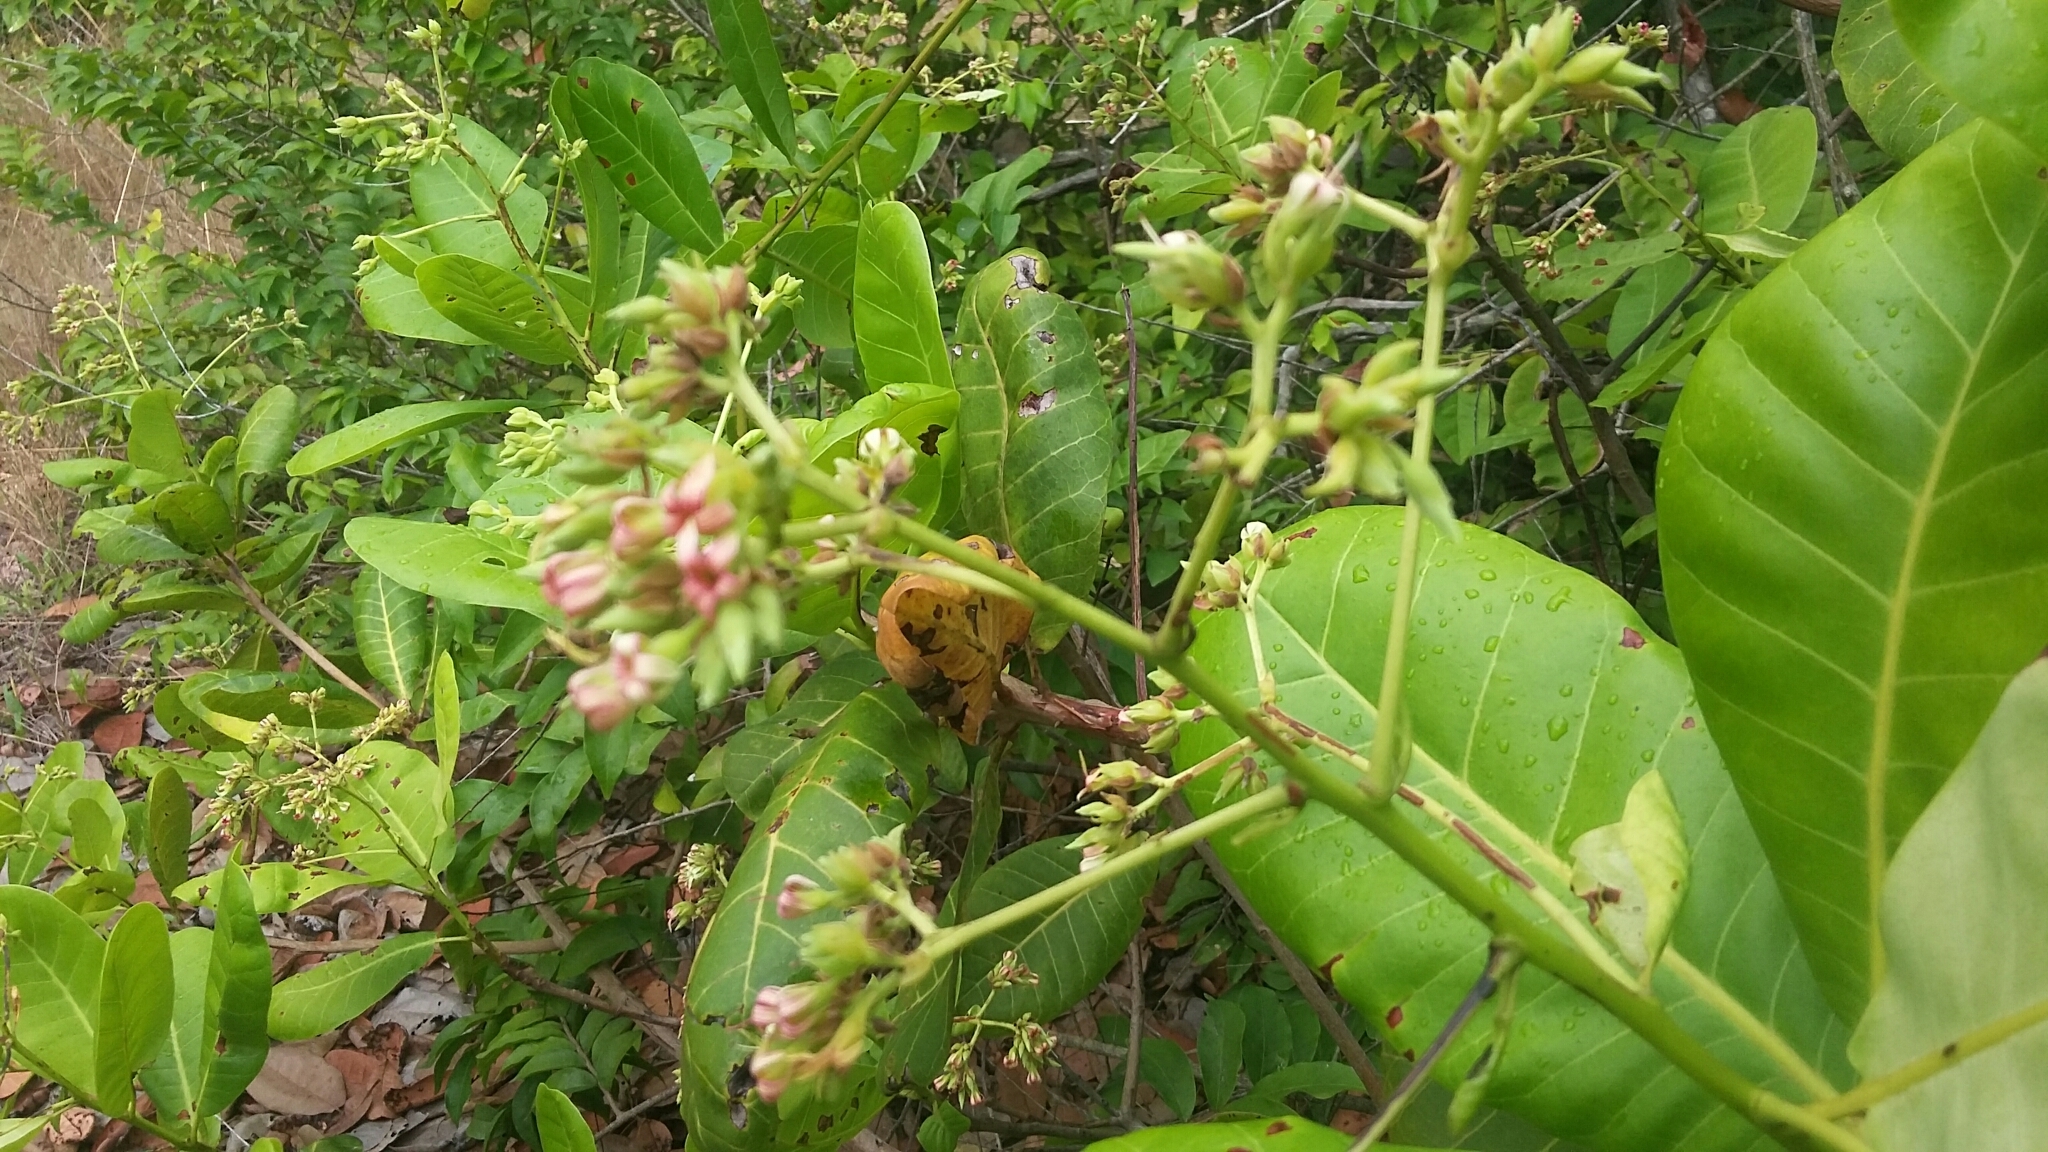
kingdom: Plantae
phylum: Tracheophyta
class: Magnoliopsida
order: Sapindales
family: Anacardiaceae
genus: Anacardium
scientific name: Anacardium occidentale
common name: Cashew
